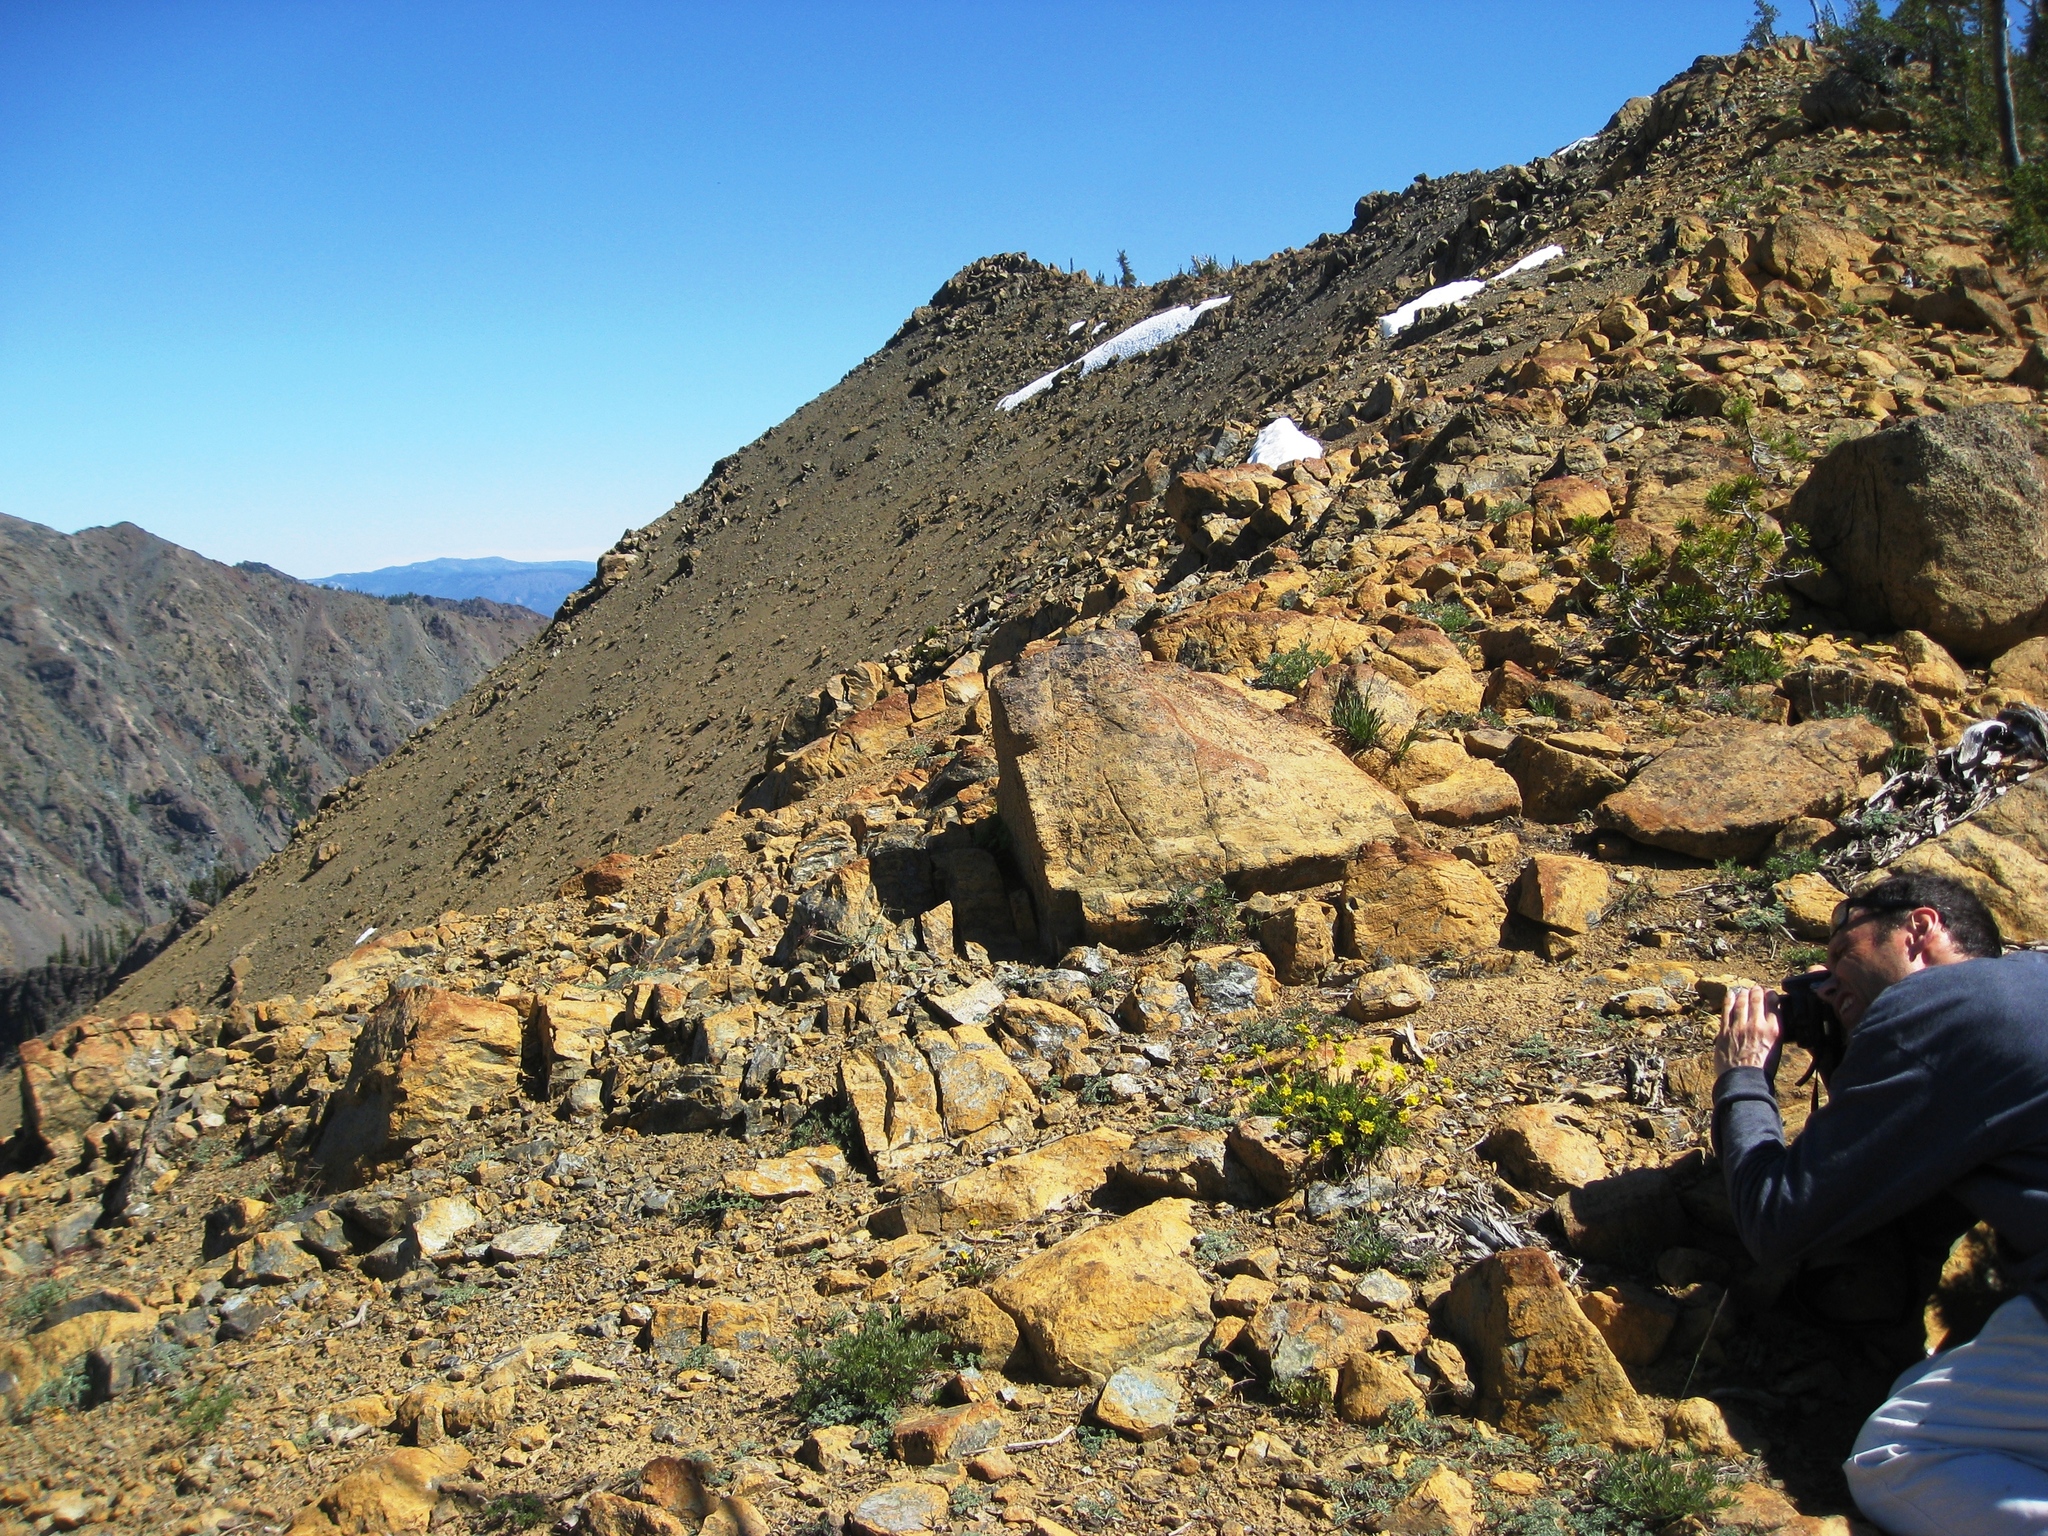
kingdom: Plantae
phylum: Tracheophyta
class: Magnoliopsida
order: Rosales
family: Rosaceae
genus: Potentilla
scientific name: Potentilla tweedyi
